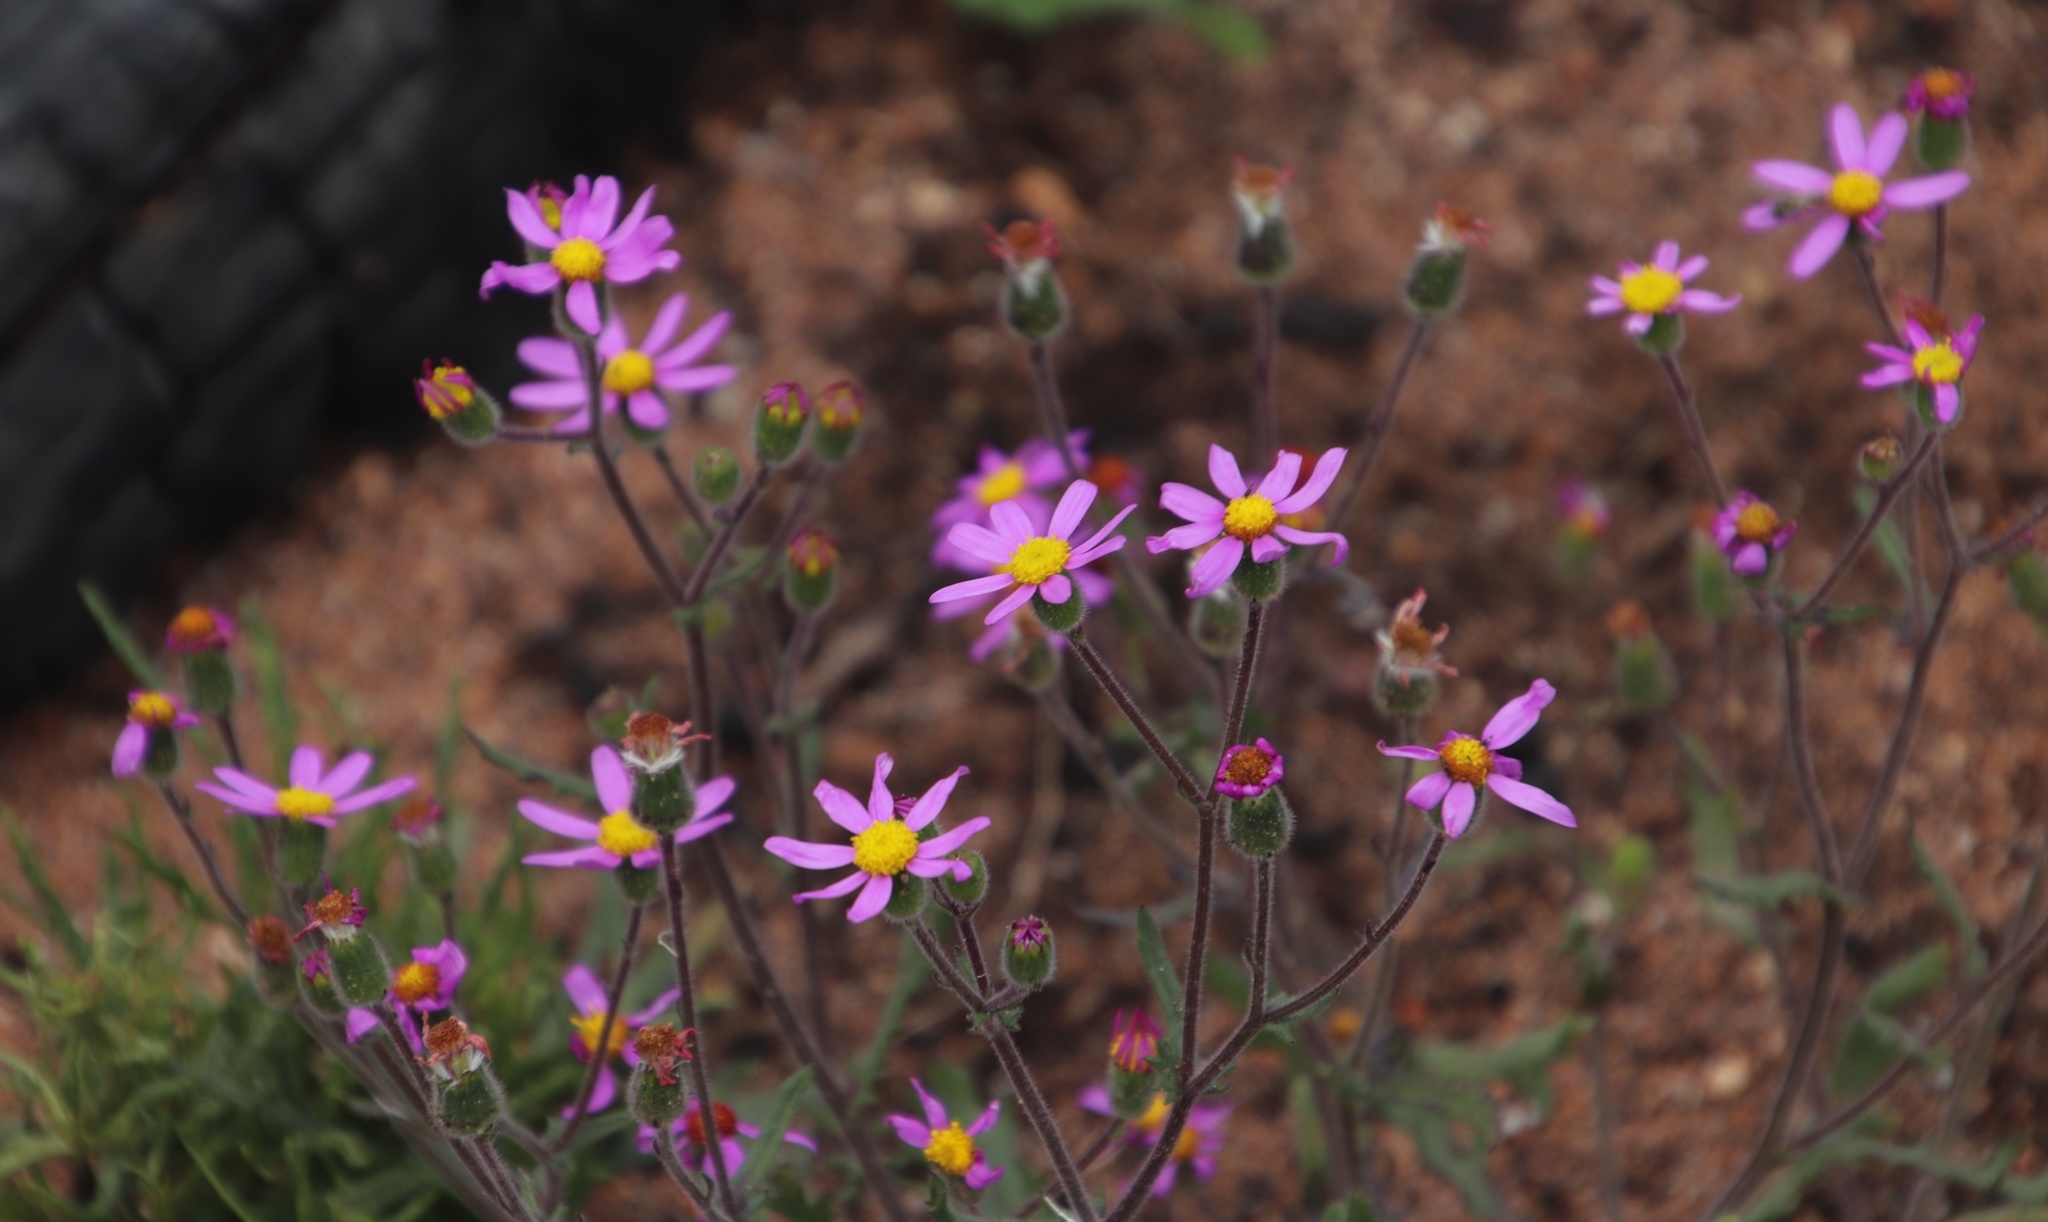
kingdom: Plantae
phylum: Tracheophyta
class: Magnoliopsida
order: Asterales
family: Asteraceae
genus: Senecio
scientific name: Senecio arenarius
